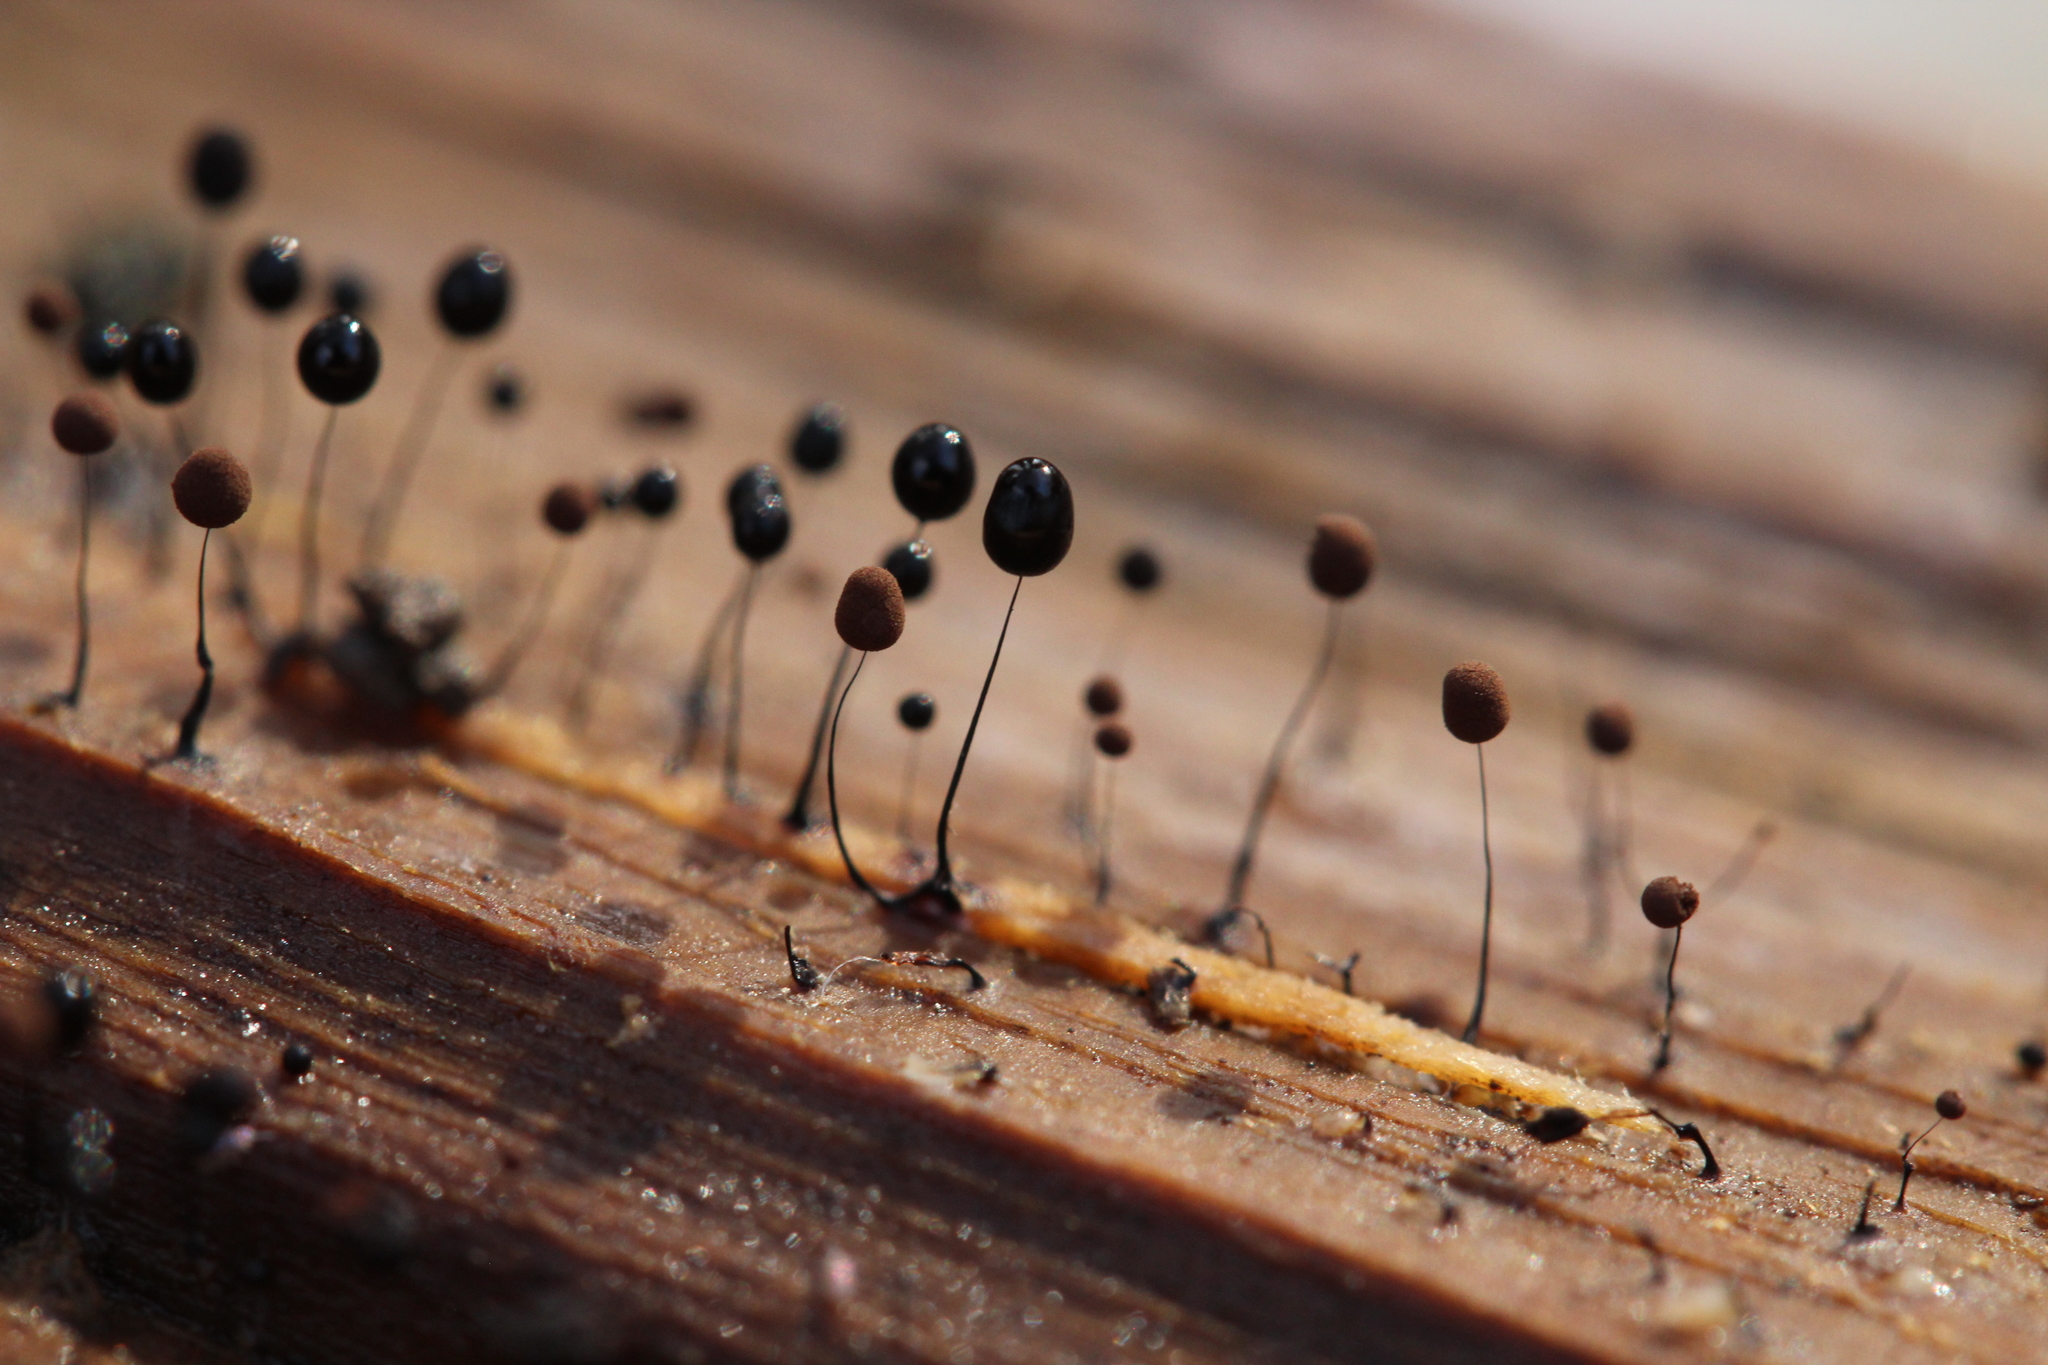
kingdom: Protozoa
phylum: Mycetozoa
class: Myxomycetes
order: Stemonitidales
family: Stemonitidaceae
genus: Comatricha
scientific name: Comatricha
